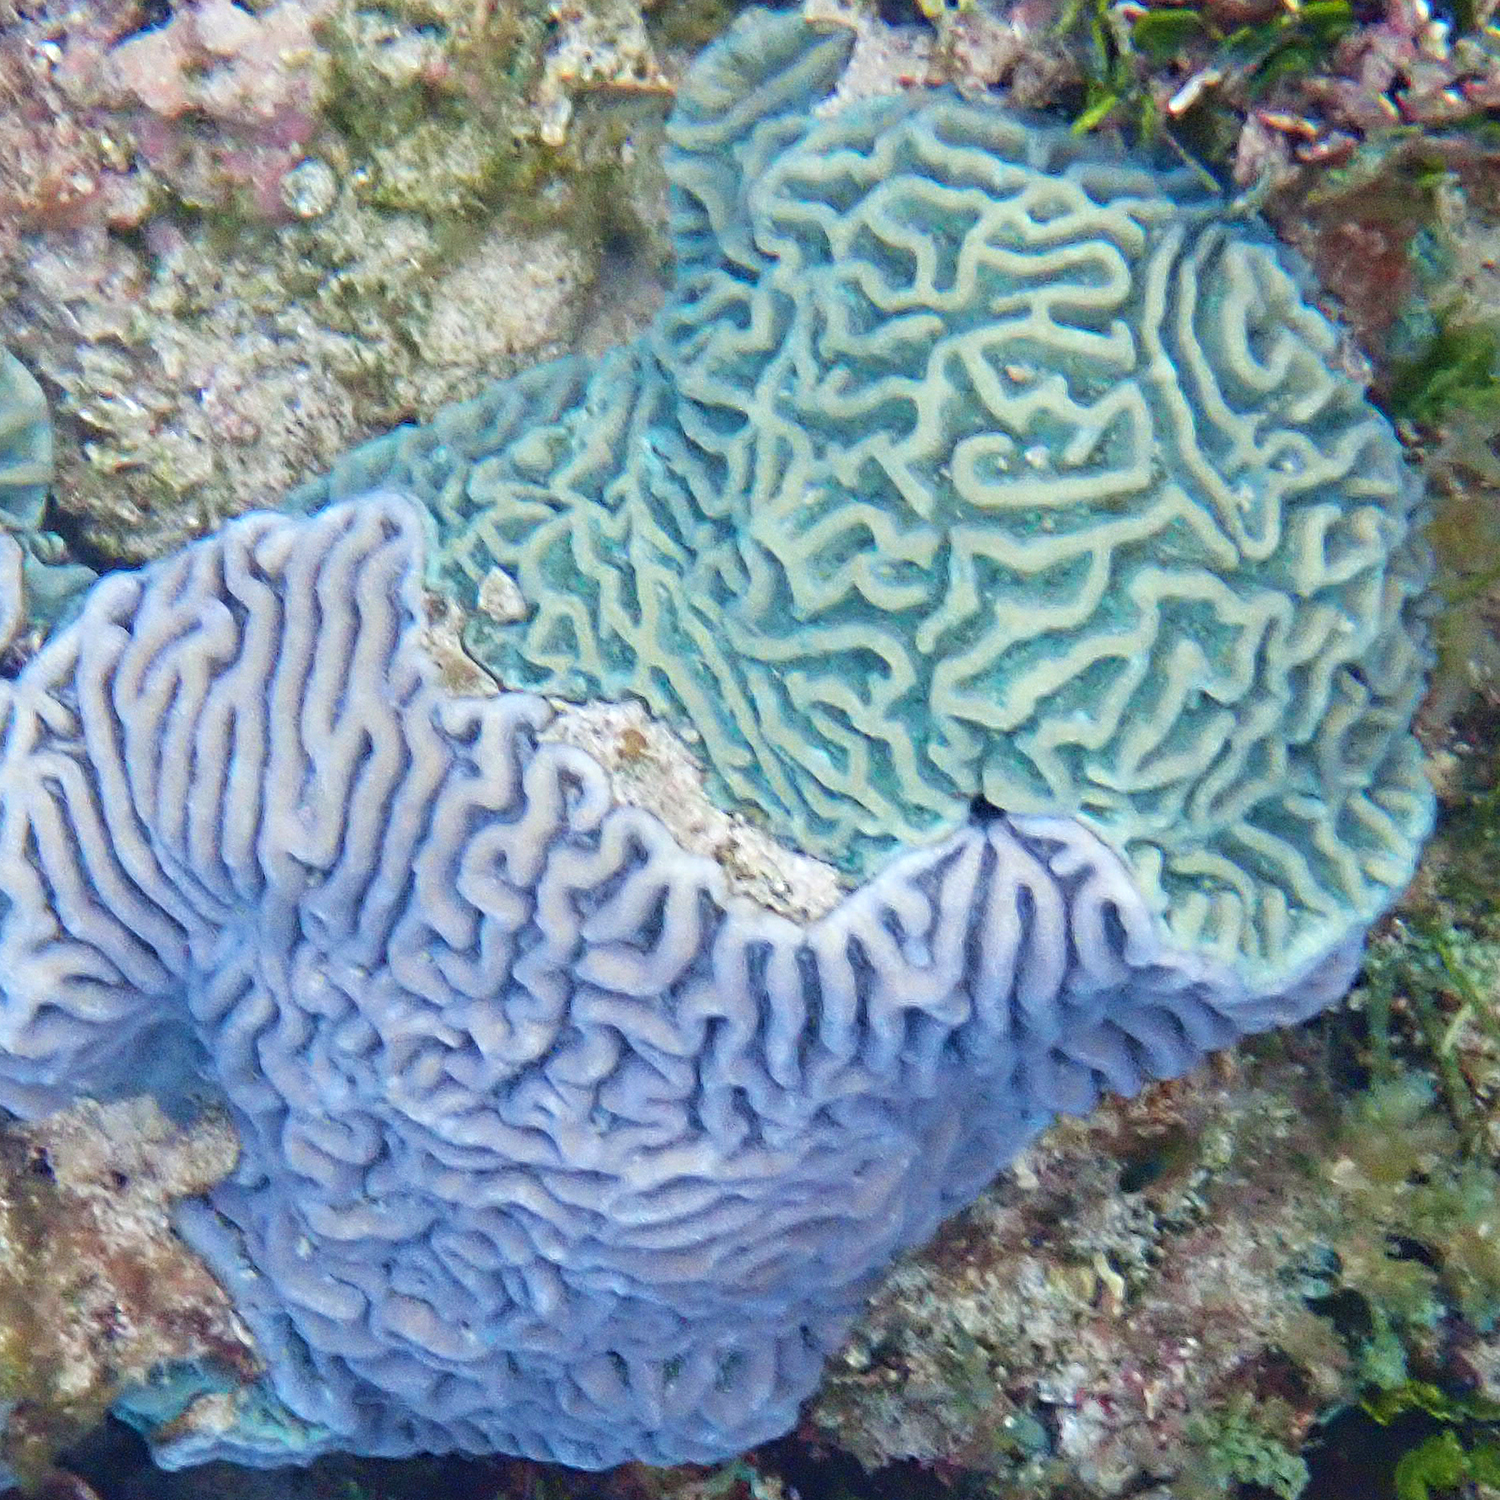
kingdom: Animalia
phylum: Cnidaria
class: Anthozoa
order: Scleractinia
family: Merulinidae
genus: Paragoniastrea
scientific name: Paragoniastrea australensis
